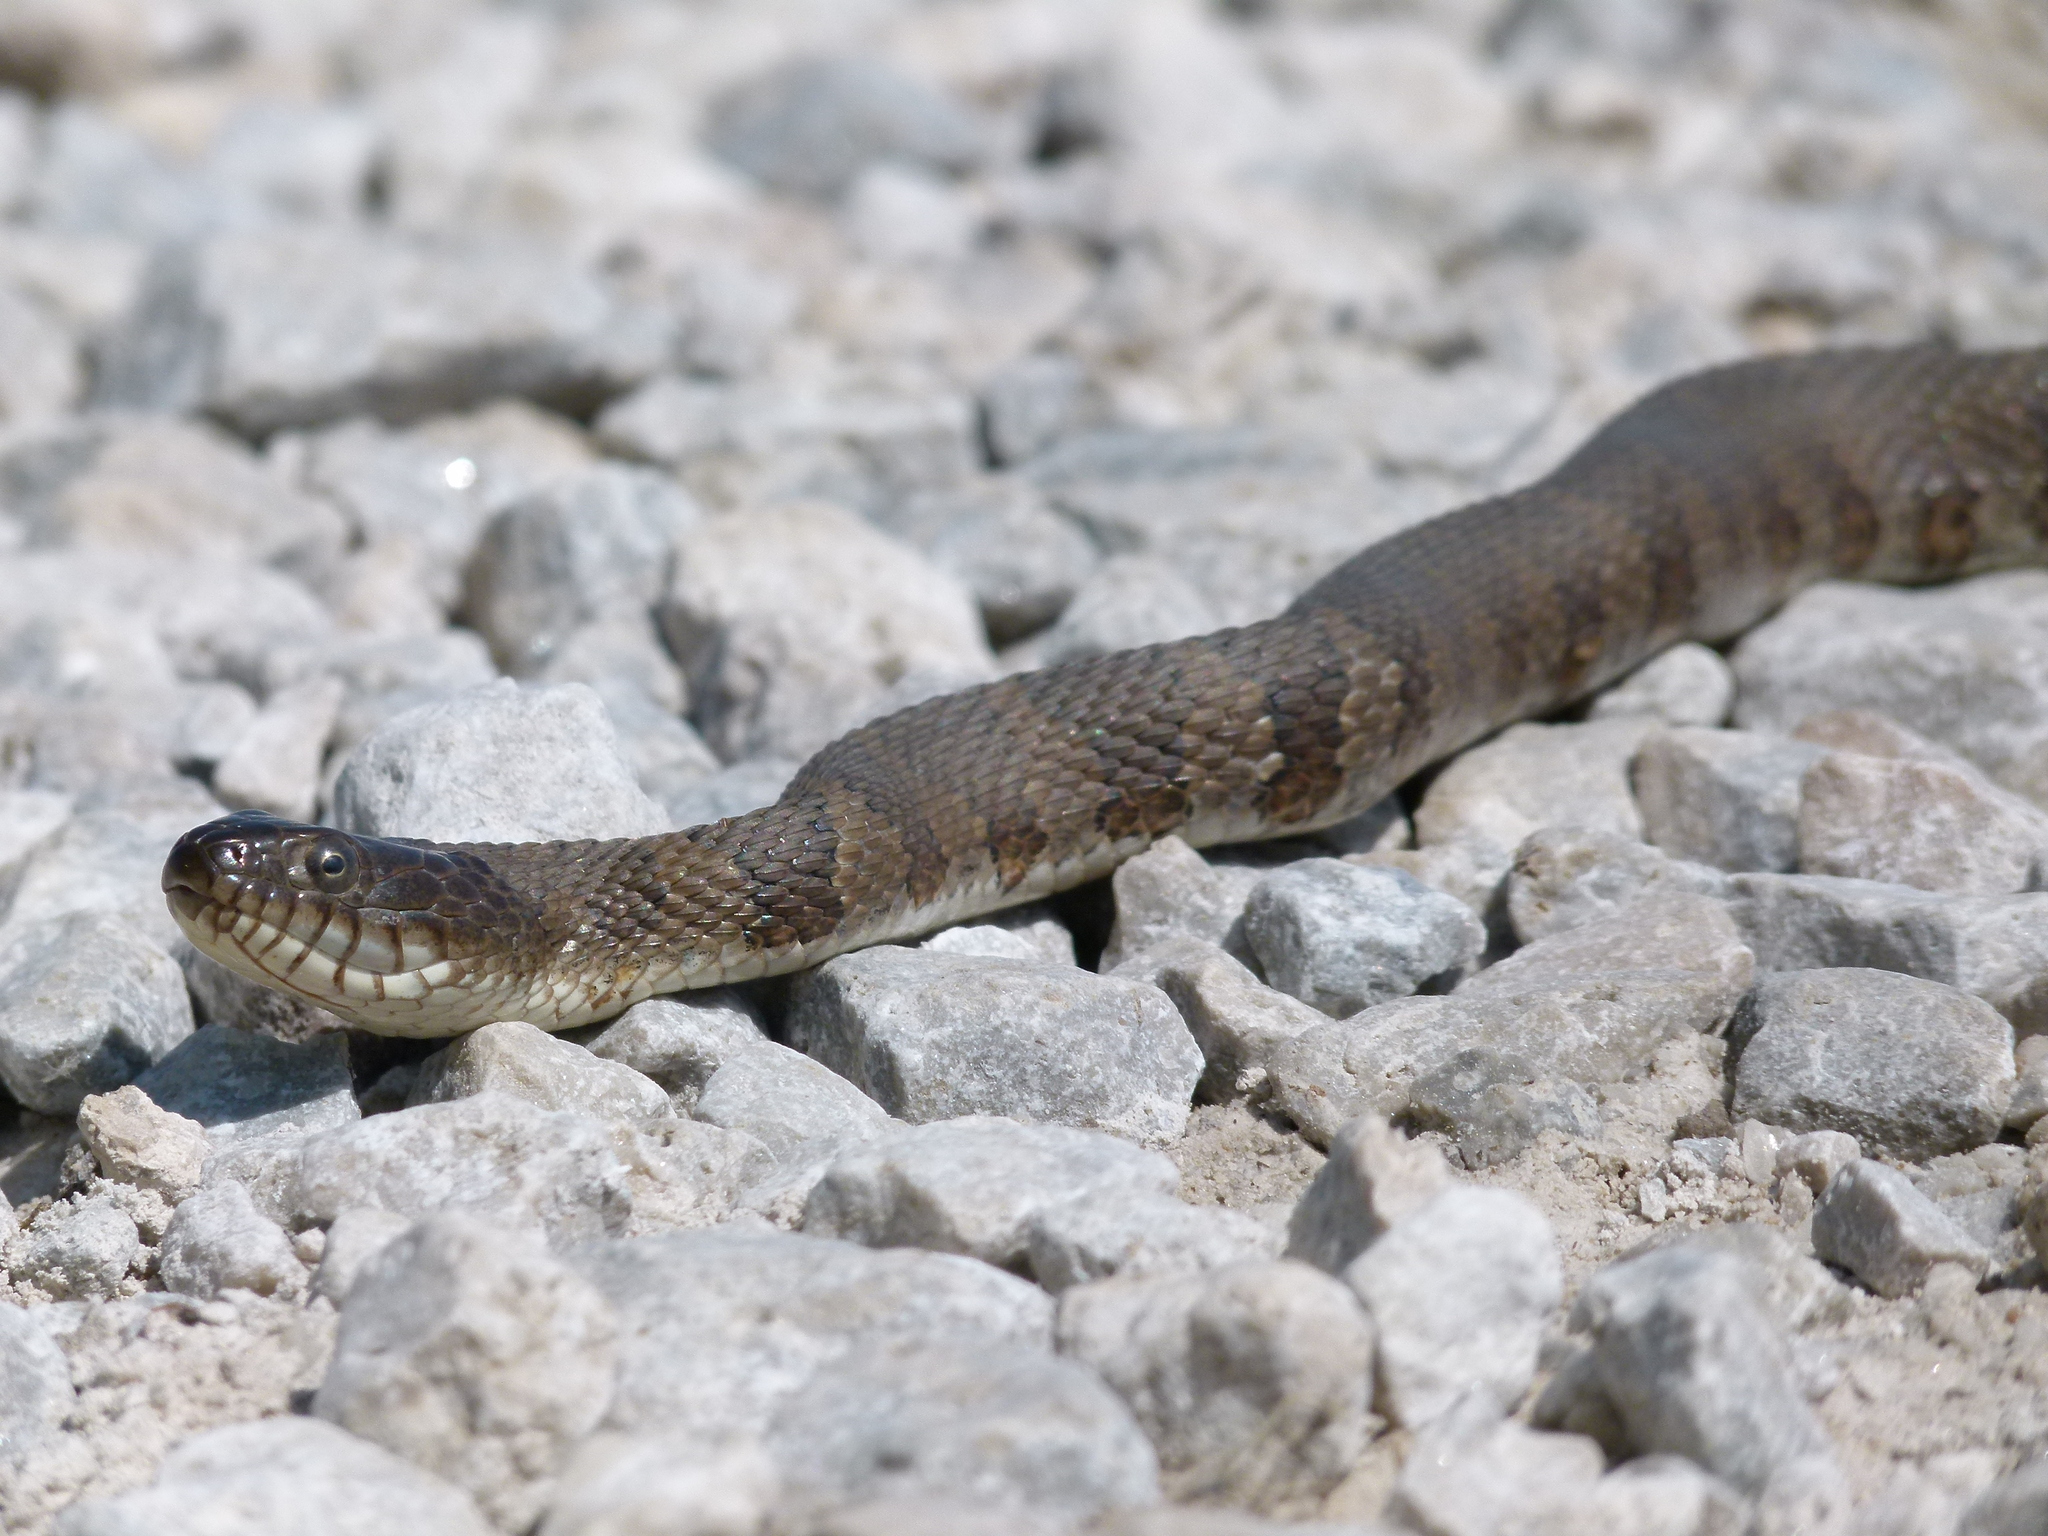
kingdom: Animalia
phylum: Chordata
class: Squamata
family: Colubridae
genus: Nerodia
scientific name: Nerodia sipedon
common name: Northern water snake
